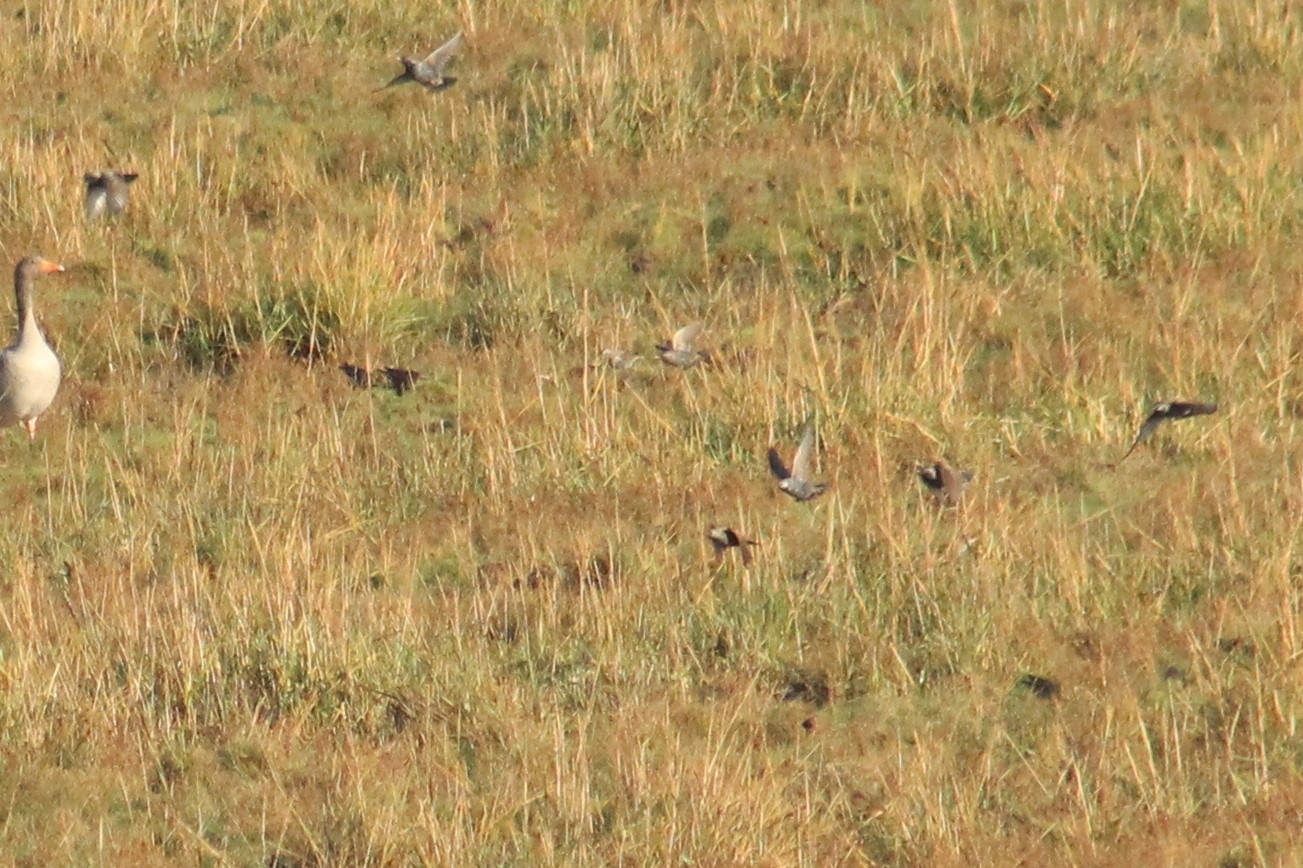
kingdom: Animalia
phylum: Chordata
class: Aves
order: Passeriformes
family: Sturnidae
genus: Sturnus
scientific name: Sturnus vulgaris
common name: Common starling
